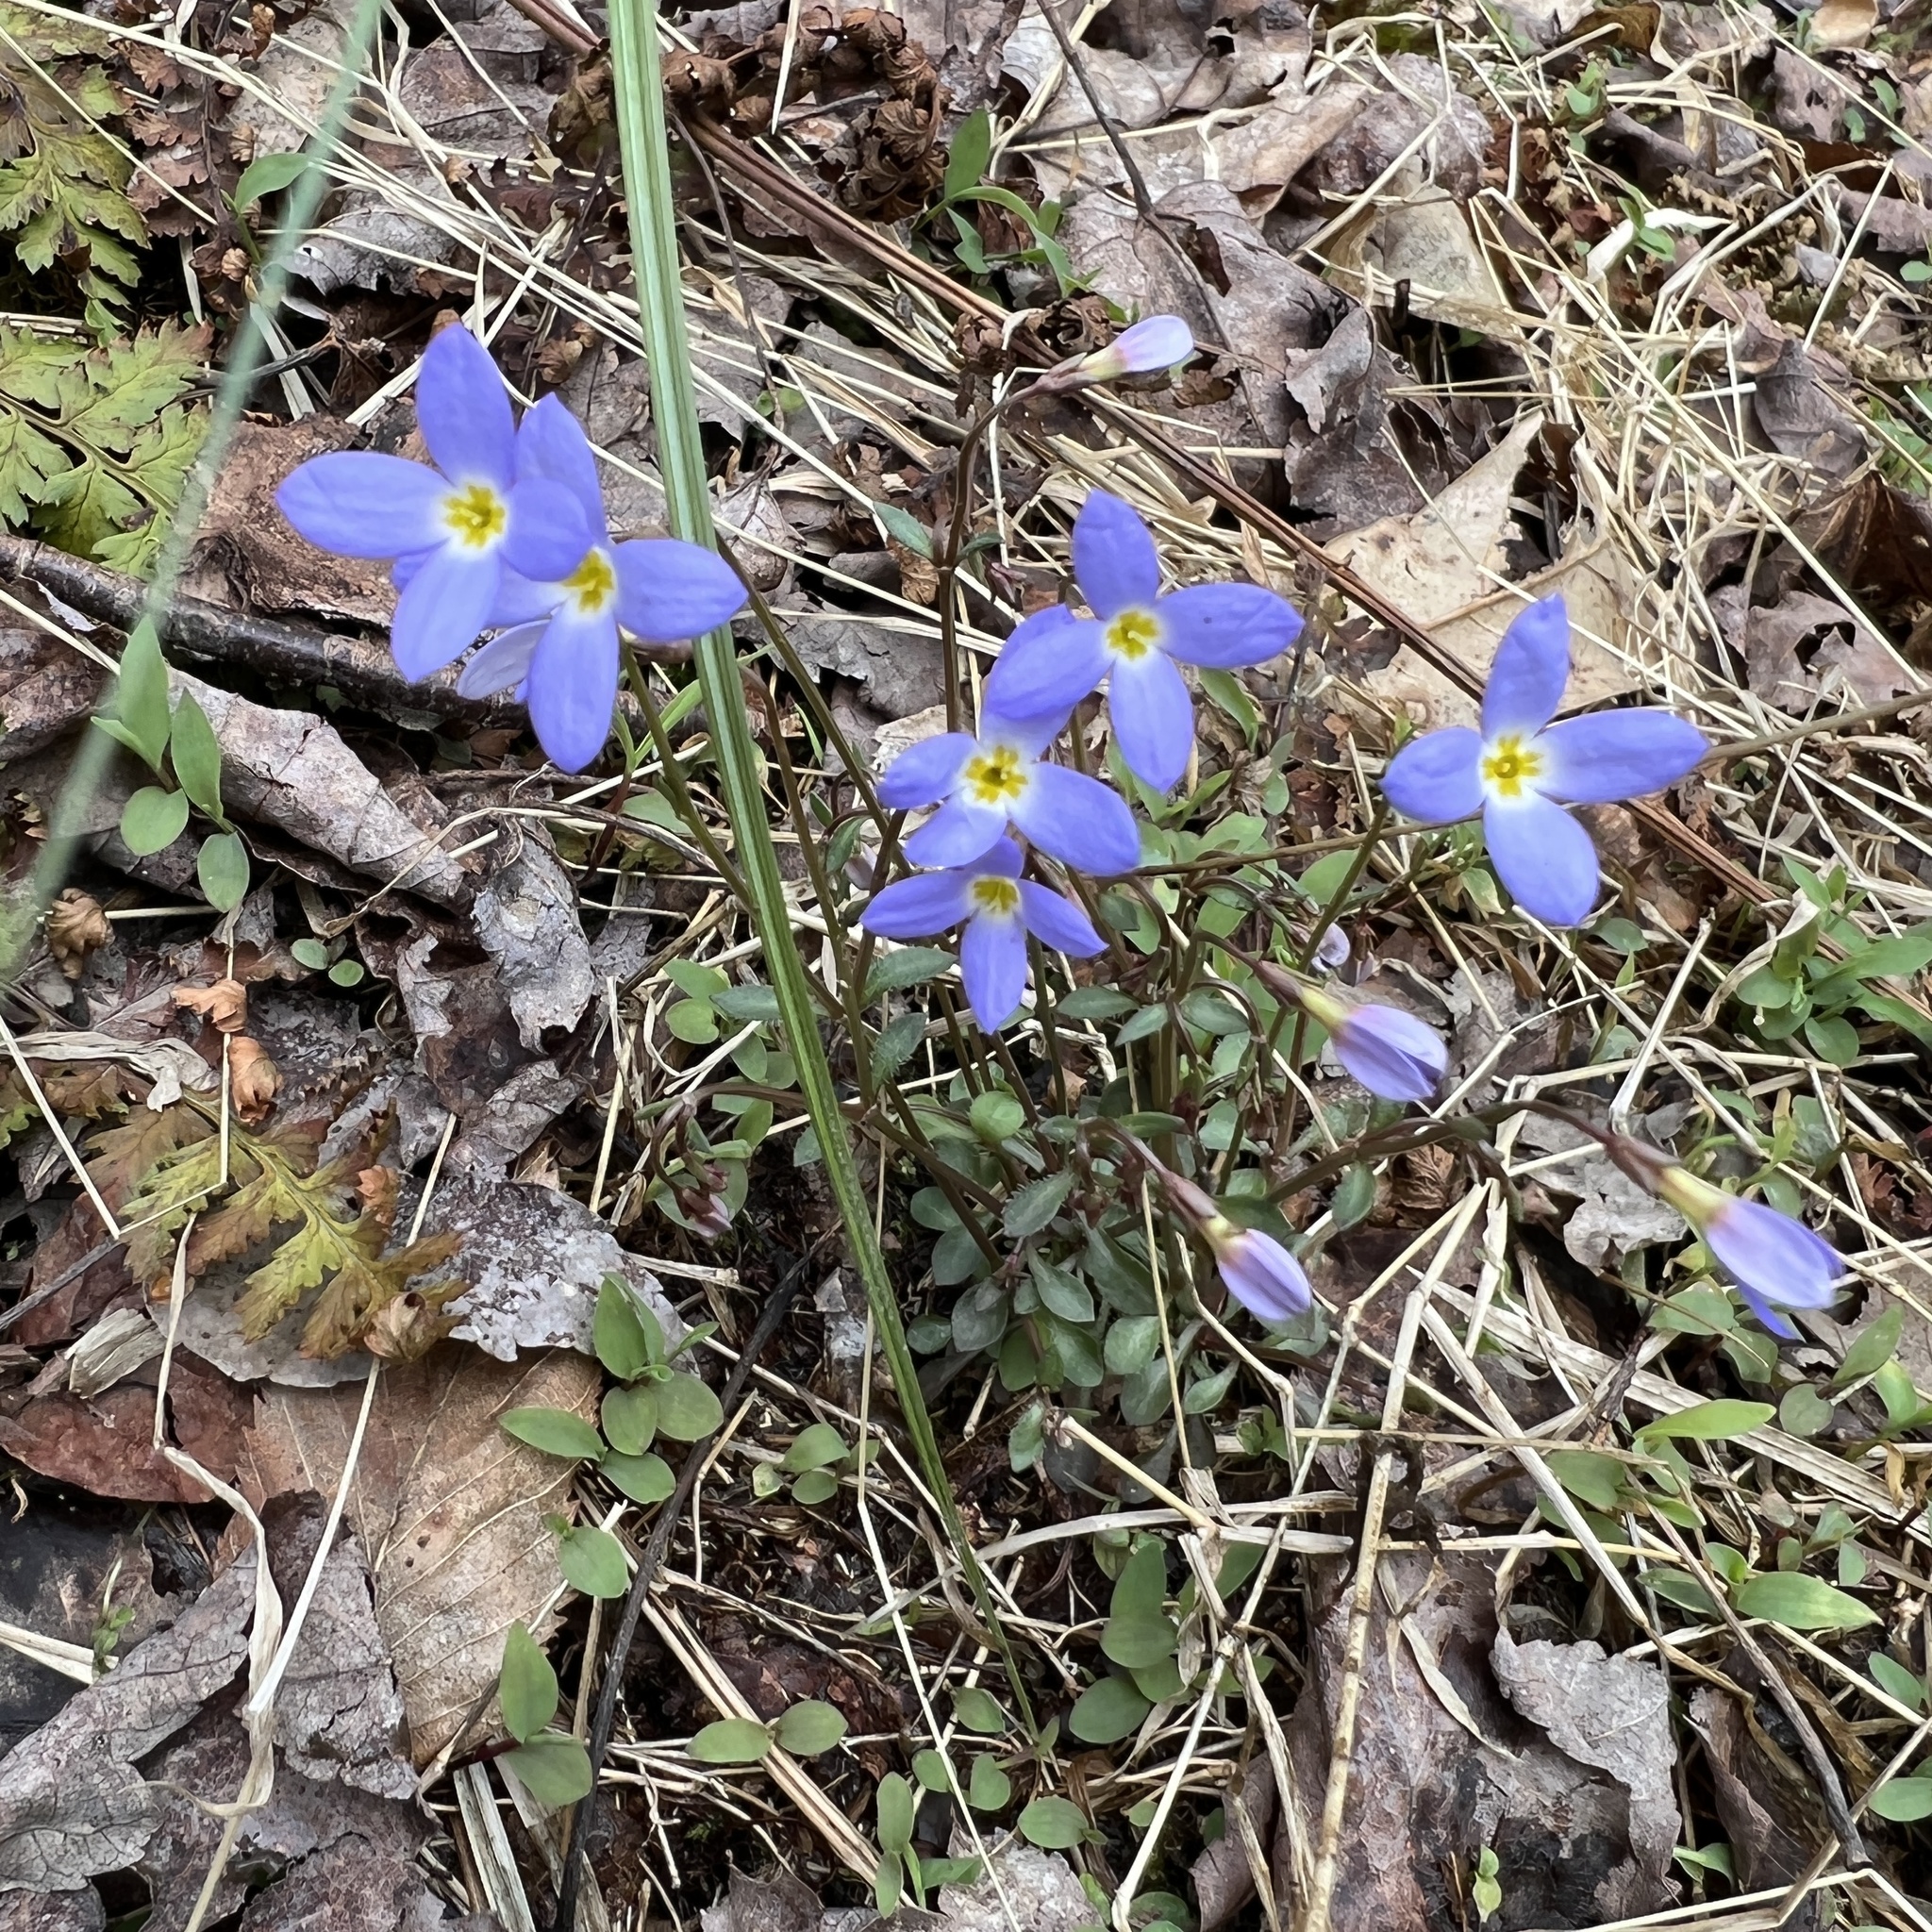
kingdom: Plantae
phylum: Tracheophyta
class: Magnoliopsida
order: Gentianales
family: Rubiaceae
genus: Houstonia
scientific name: Houstonia caerulea
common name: Bluets
